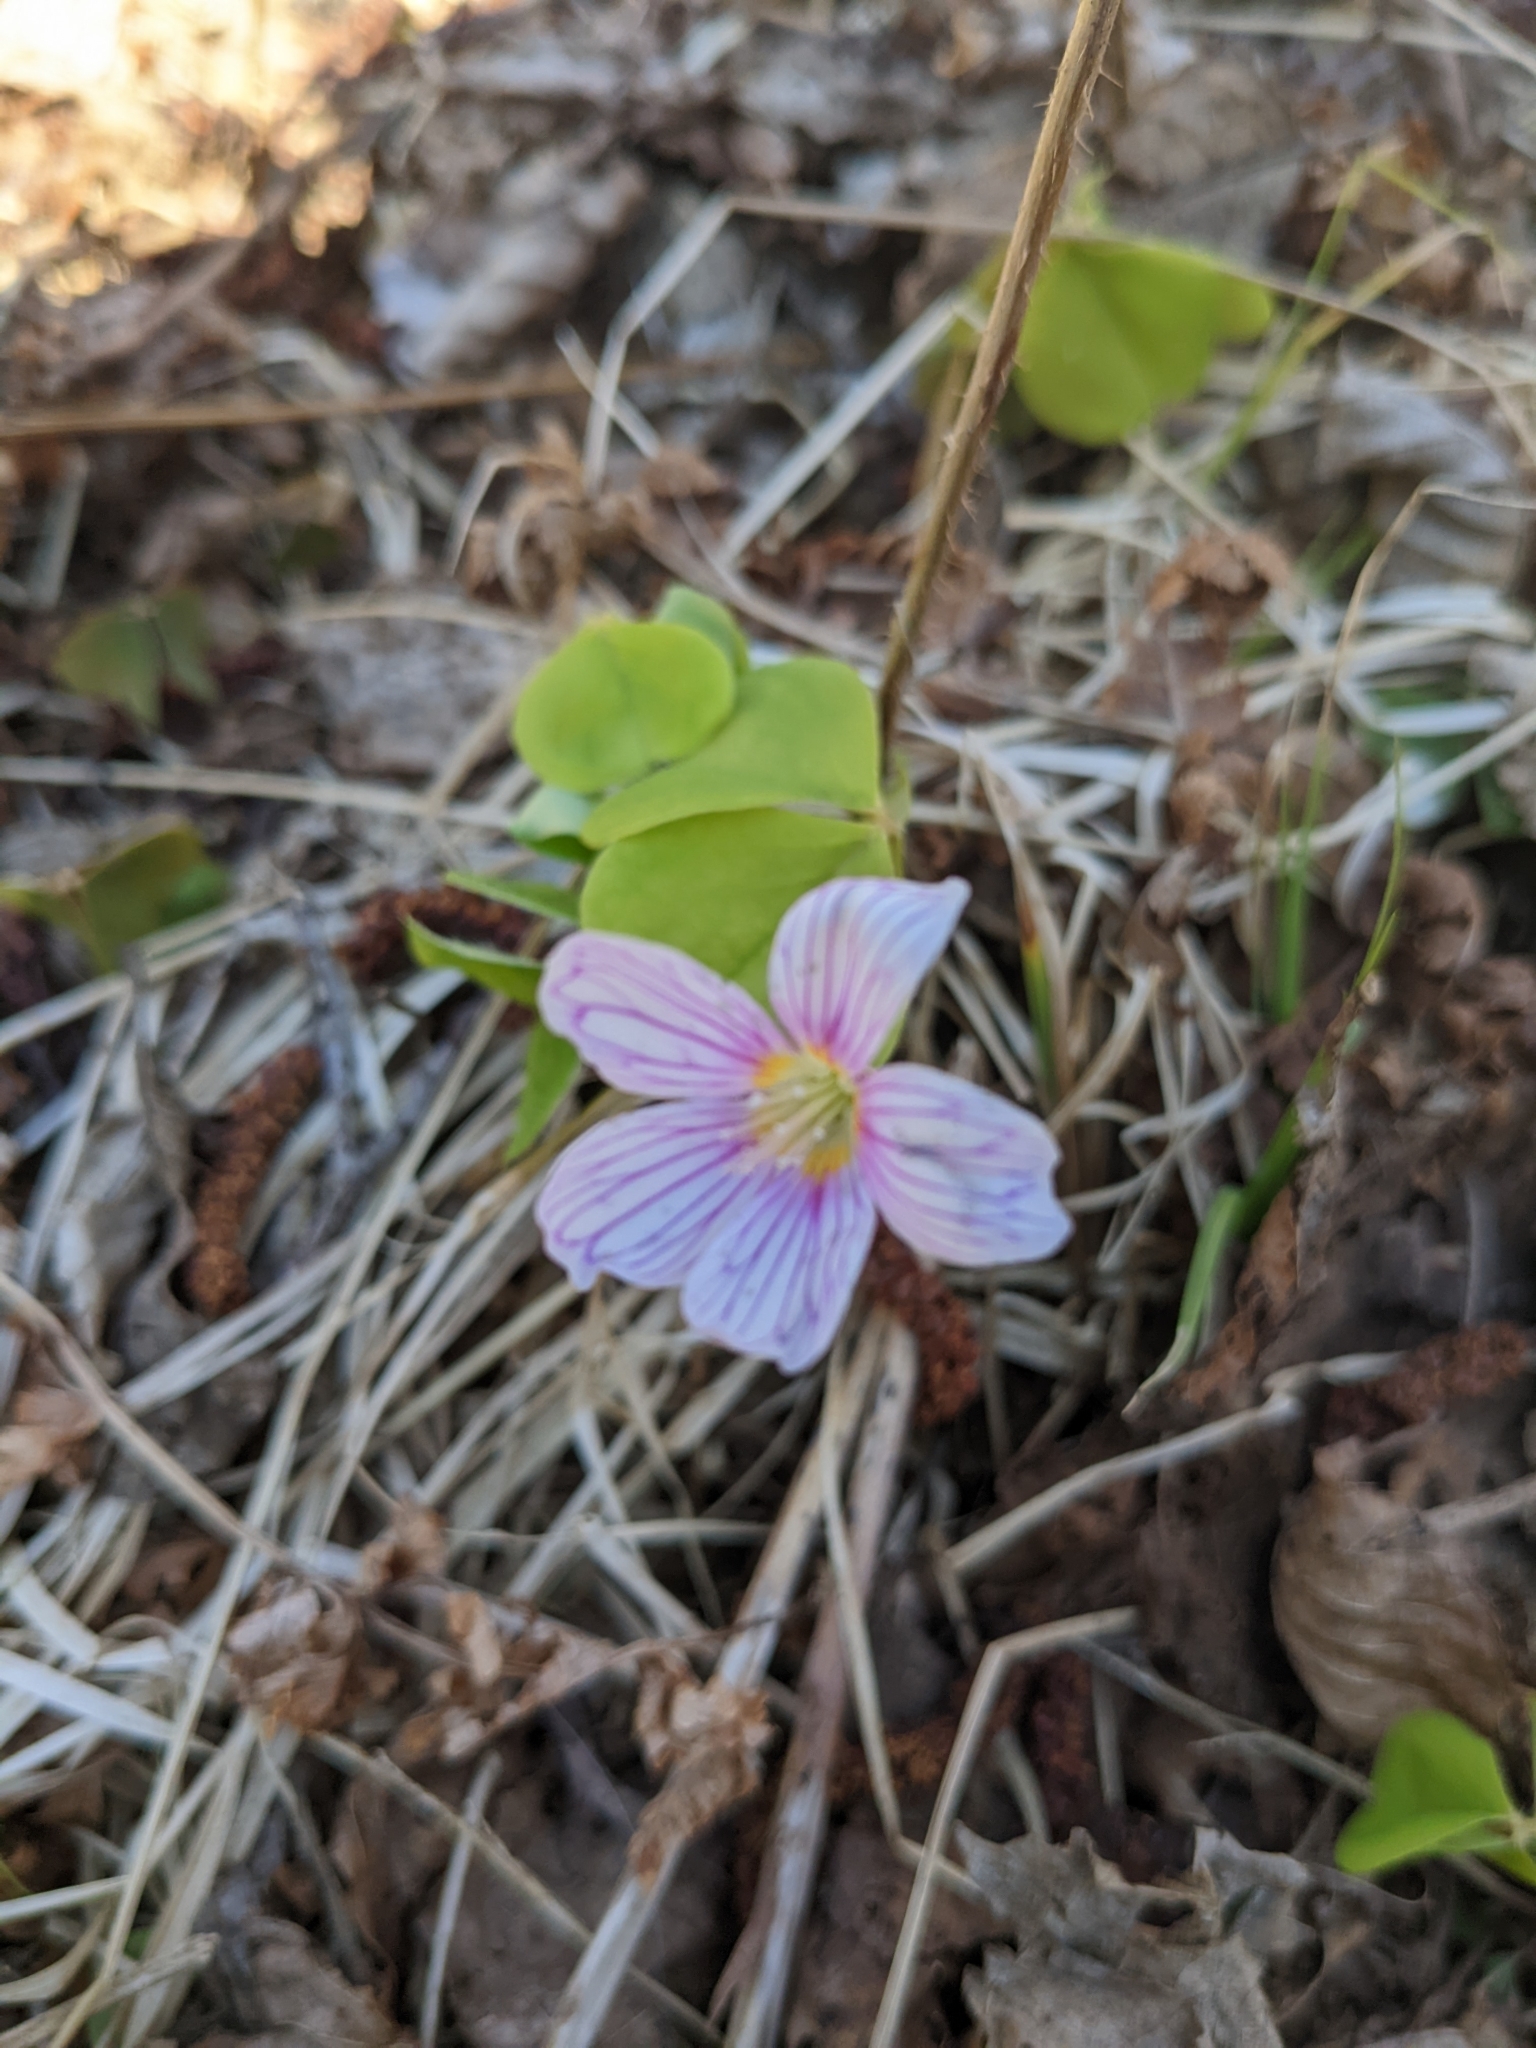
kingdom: Plantae
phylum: Tracheophyta
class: Magnoliopsida
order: Oxalidales
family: Oxalidaceae
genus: Oxalis
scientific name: Oxalis acetosella
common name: Wood-sorrel
